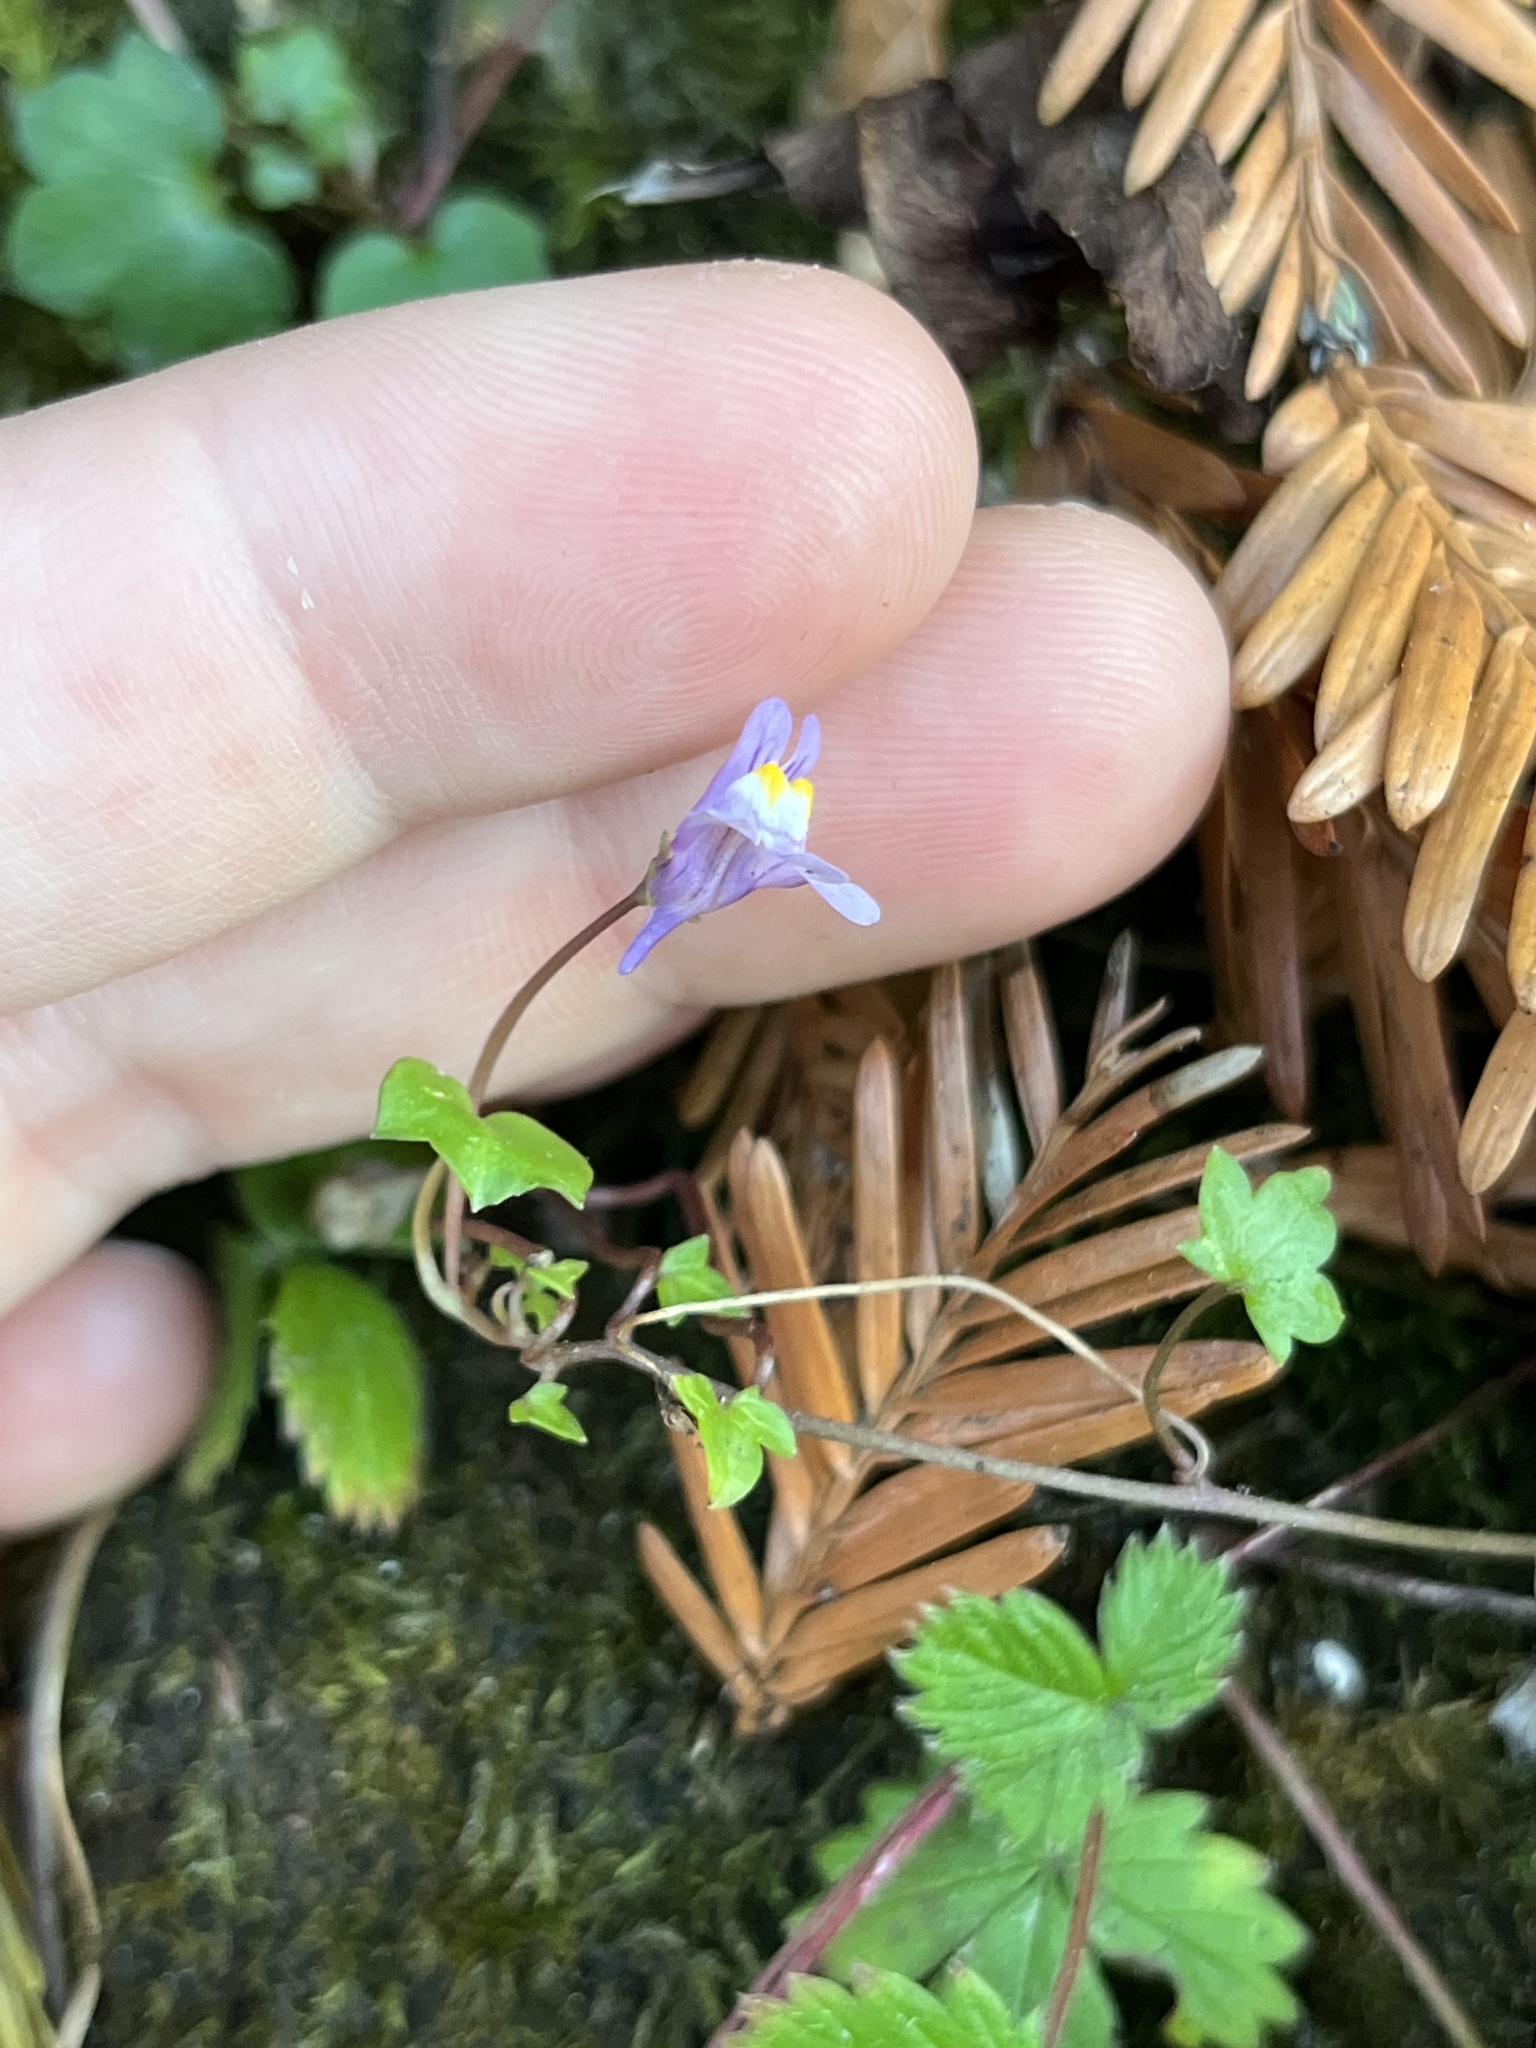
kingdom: Plantae
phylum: Tracheophyta
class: Magnoliopsida
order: Lamiales
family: Plantaginaceae
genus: Cymbalaria
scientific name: Cymbalaria muralis
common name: Ivy-leaved toadflax
